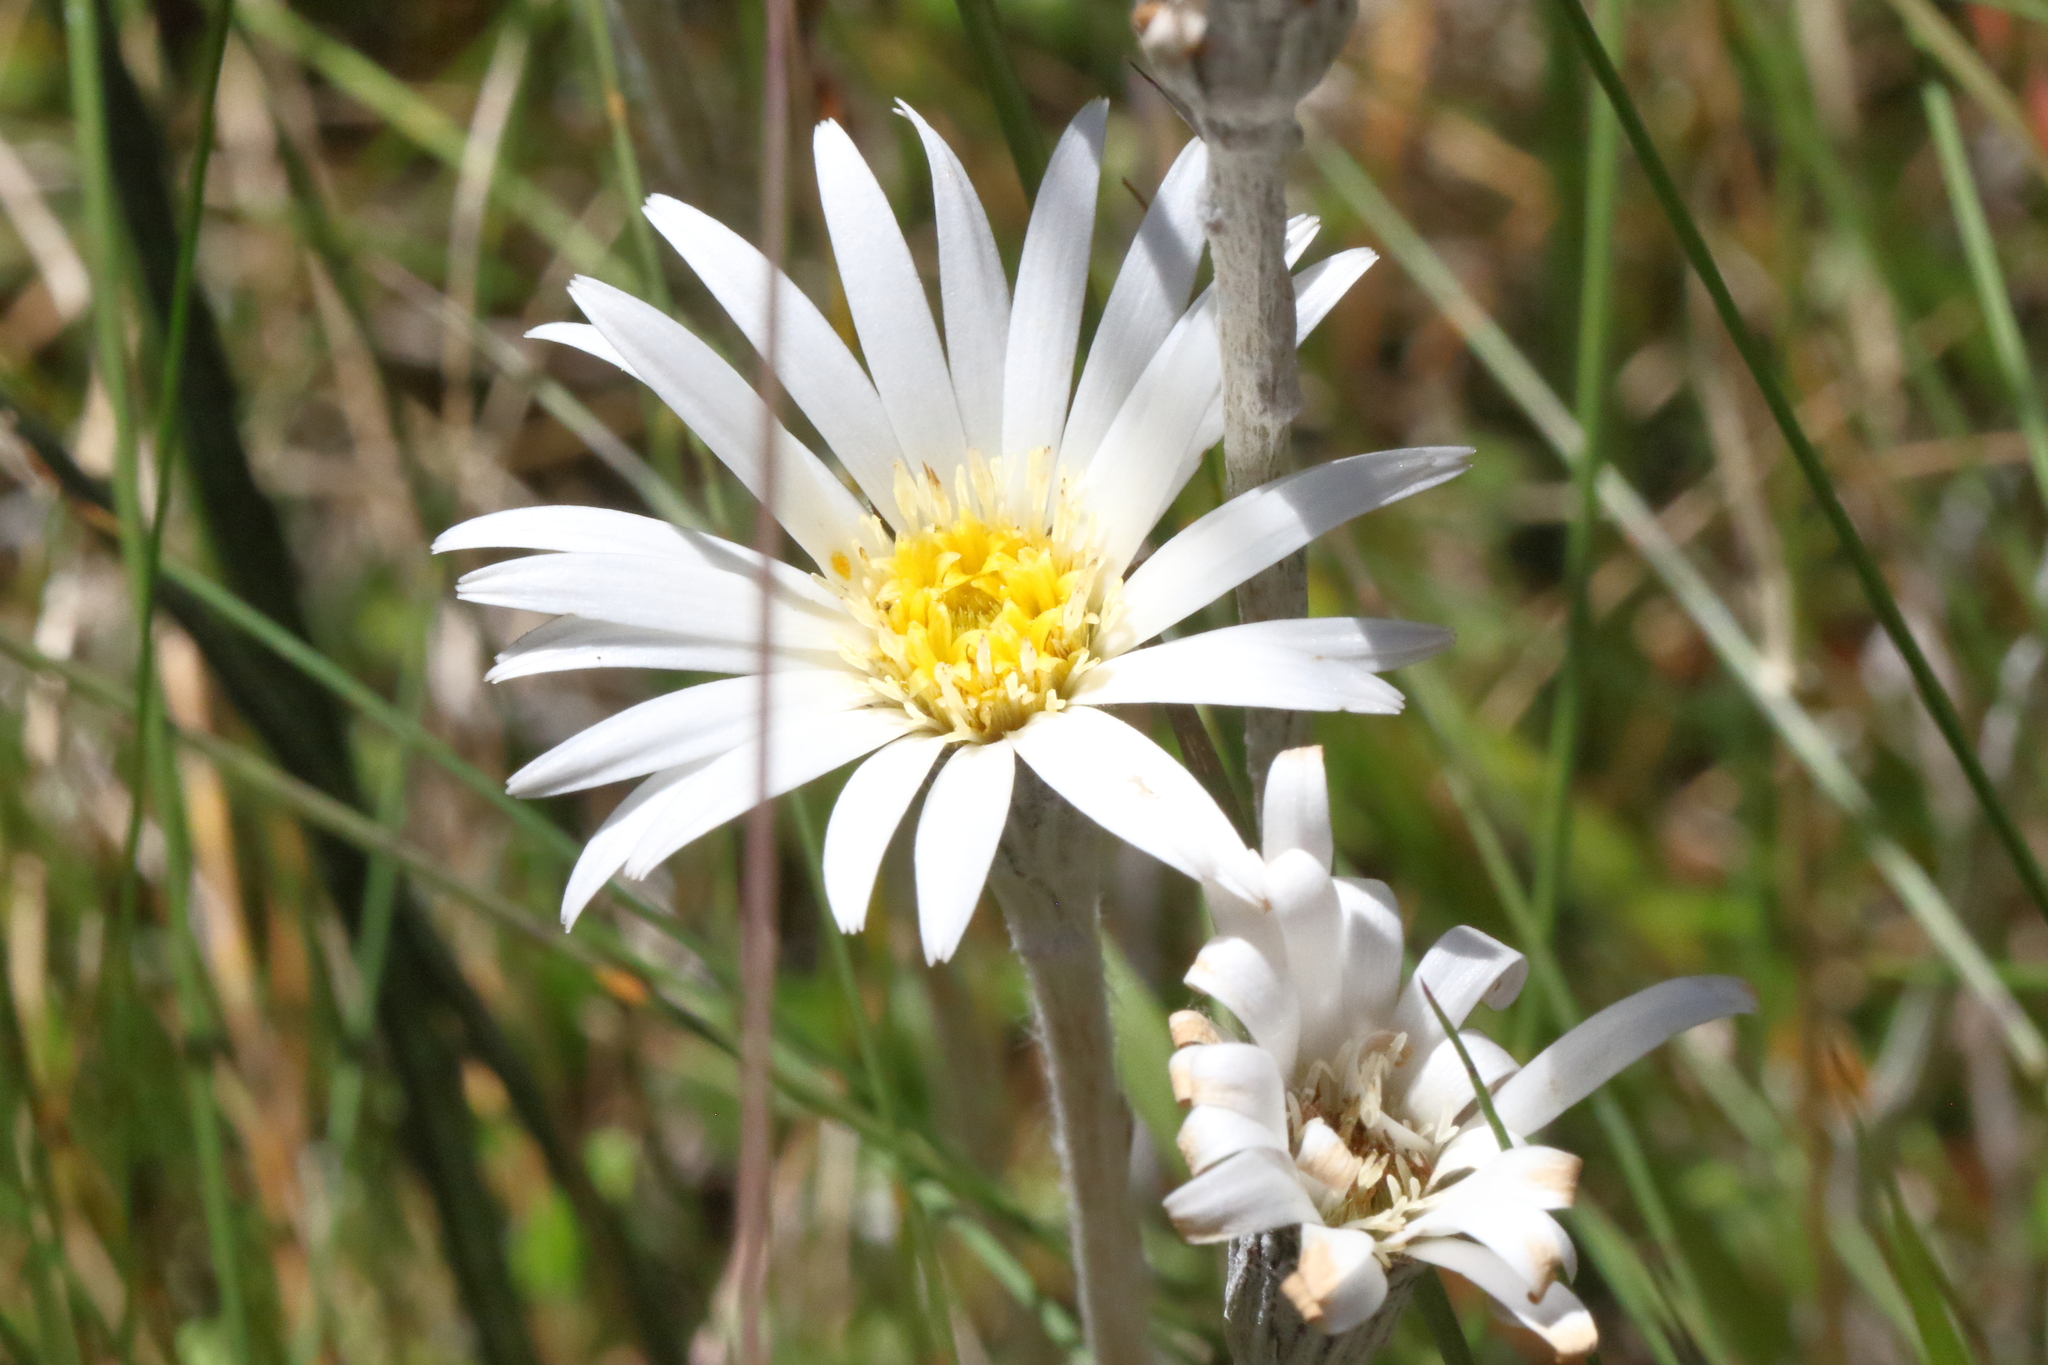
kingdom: Plantae
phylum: Tracheophyta
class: Magnoliopsida
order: Asterales
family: Asteraceae
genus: Celmisia
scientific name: Celmisia gracilenta
